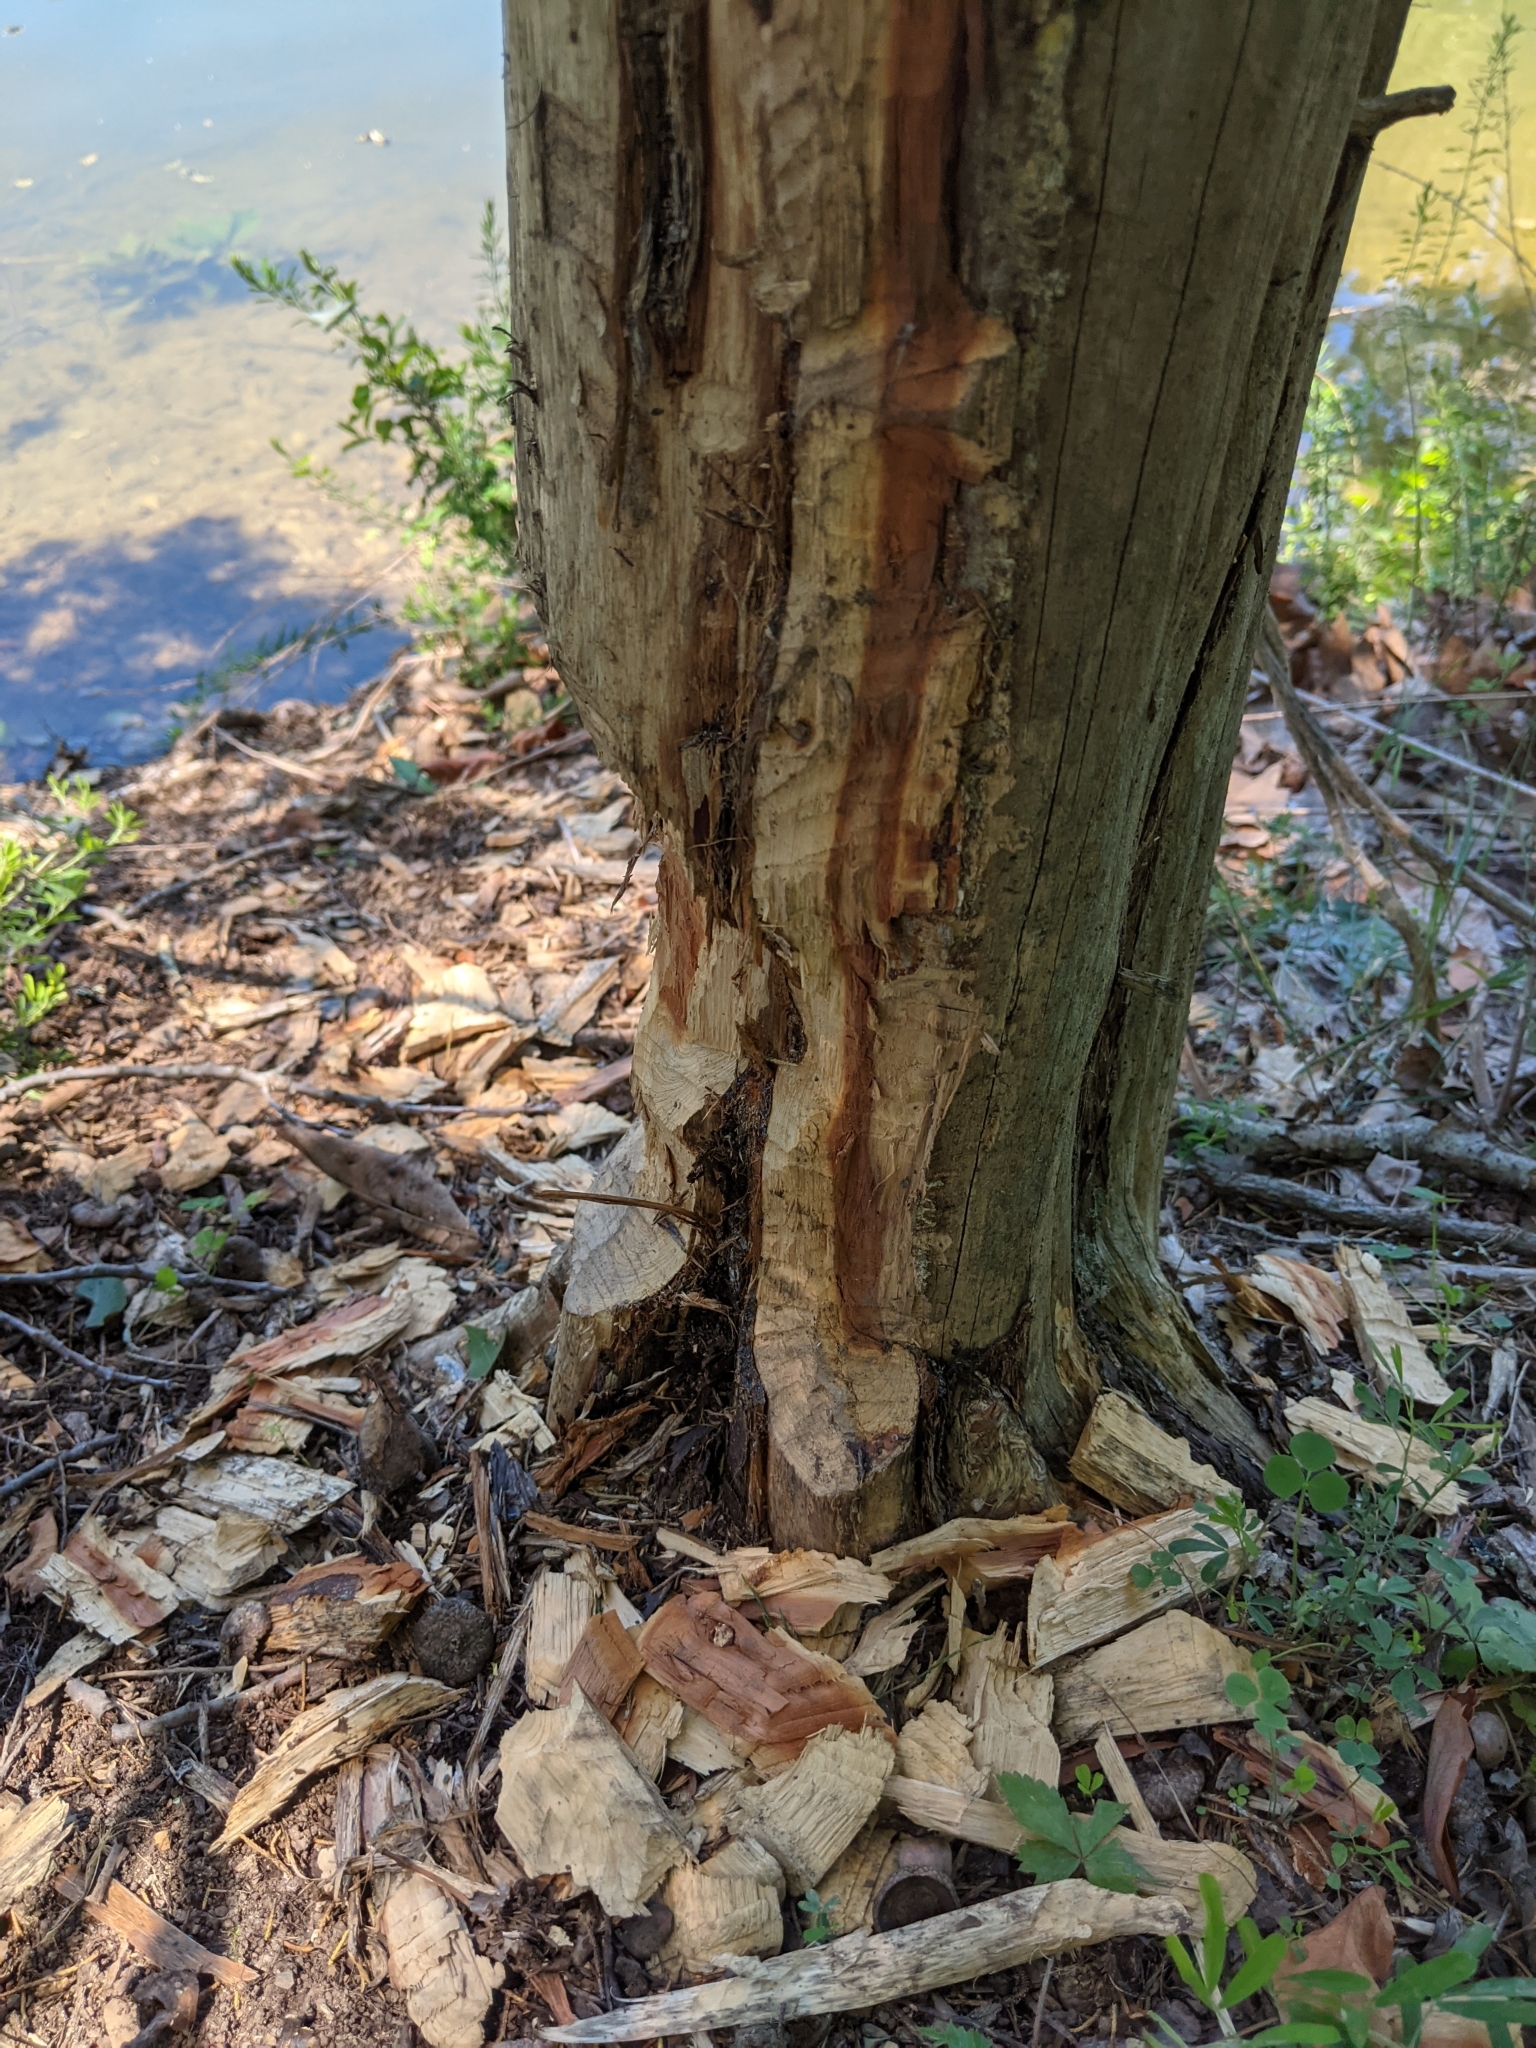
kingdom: Animalia
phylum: Chordata
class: Mammalia
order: Rodentia
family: Castoridae
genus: Castor
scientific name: Castor canadensis
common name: American beaver
